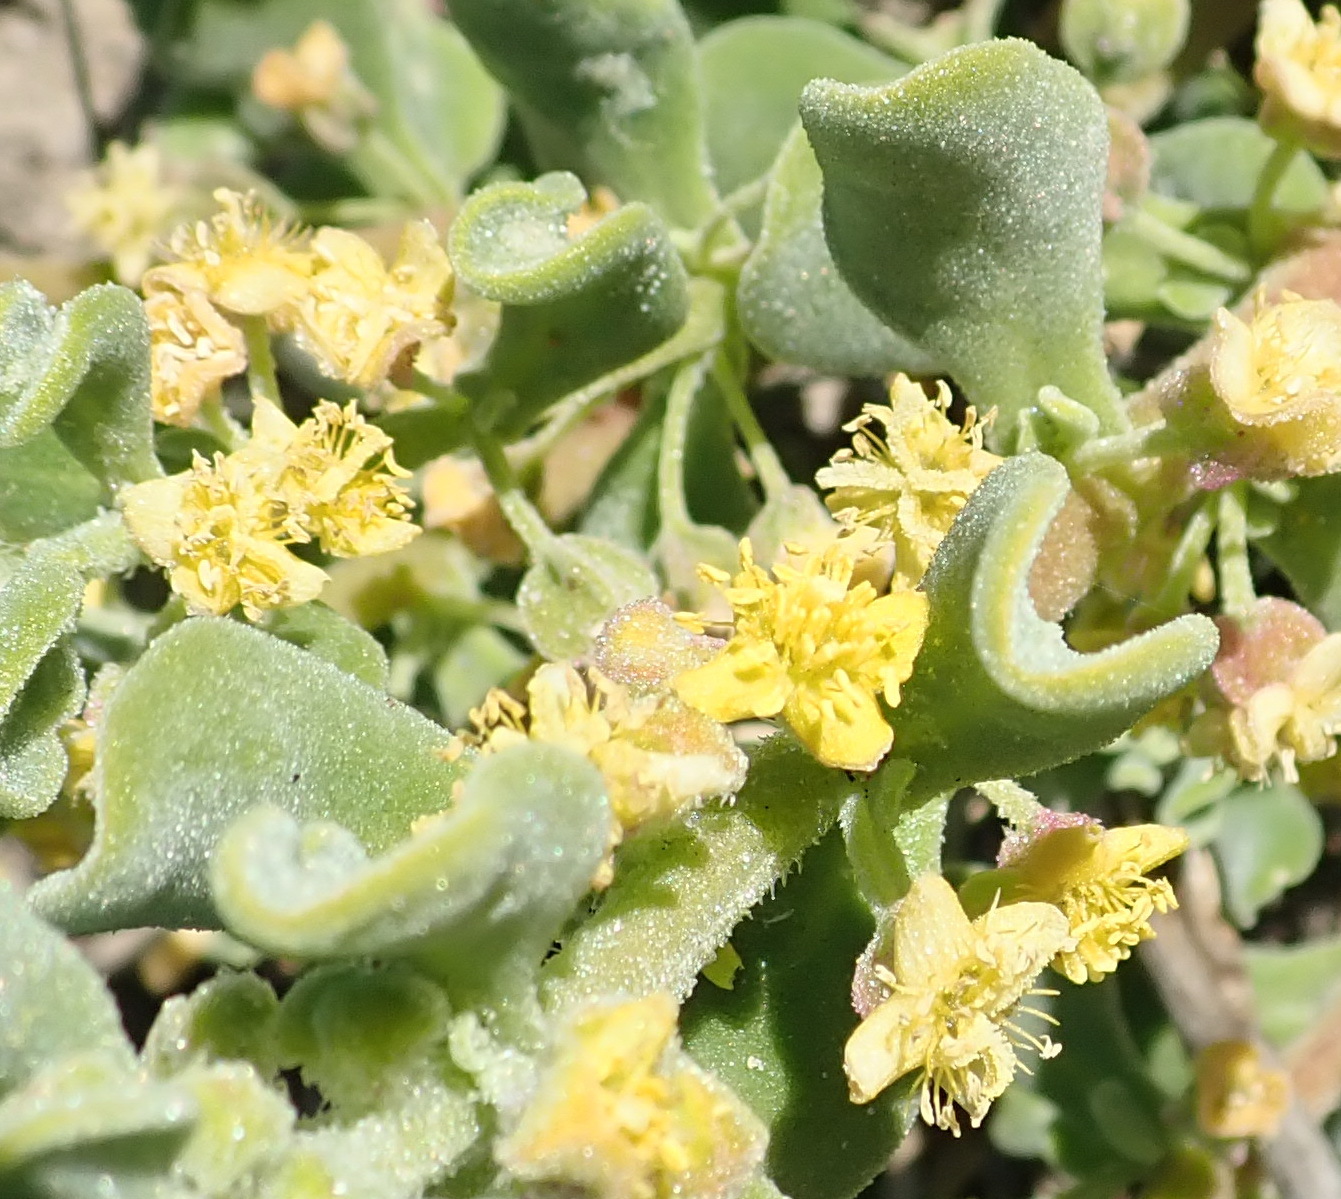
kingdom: Plantae
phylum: Tracheophyta
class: Magnoliopsida
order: Caryophyllales
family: Aizoaceae
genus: Tetragonia
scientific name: Tetragonia decumbens
